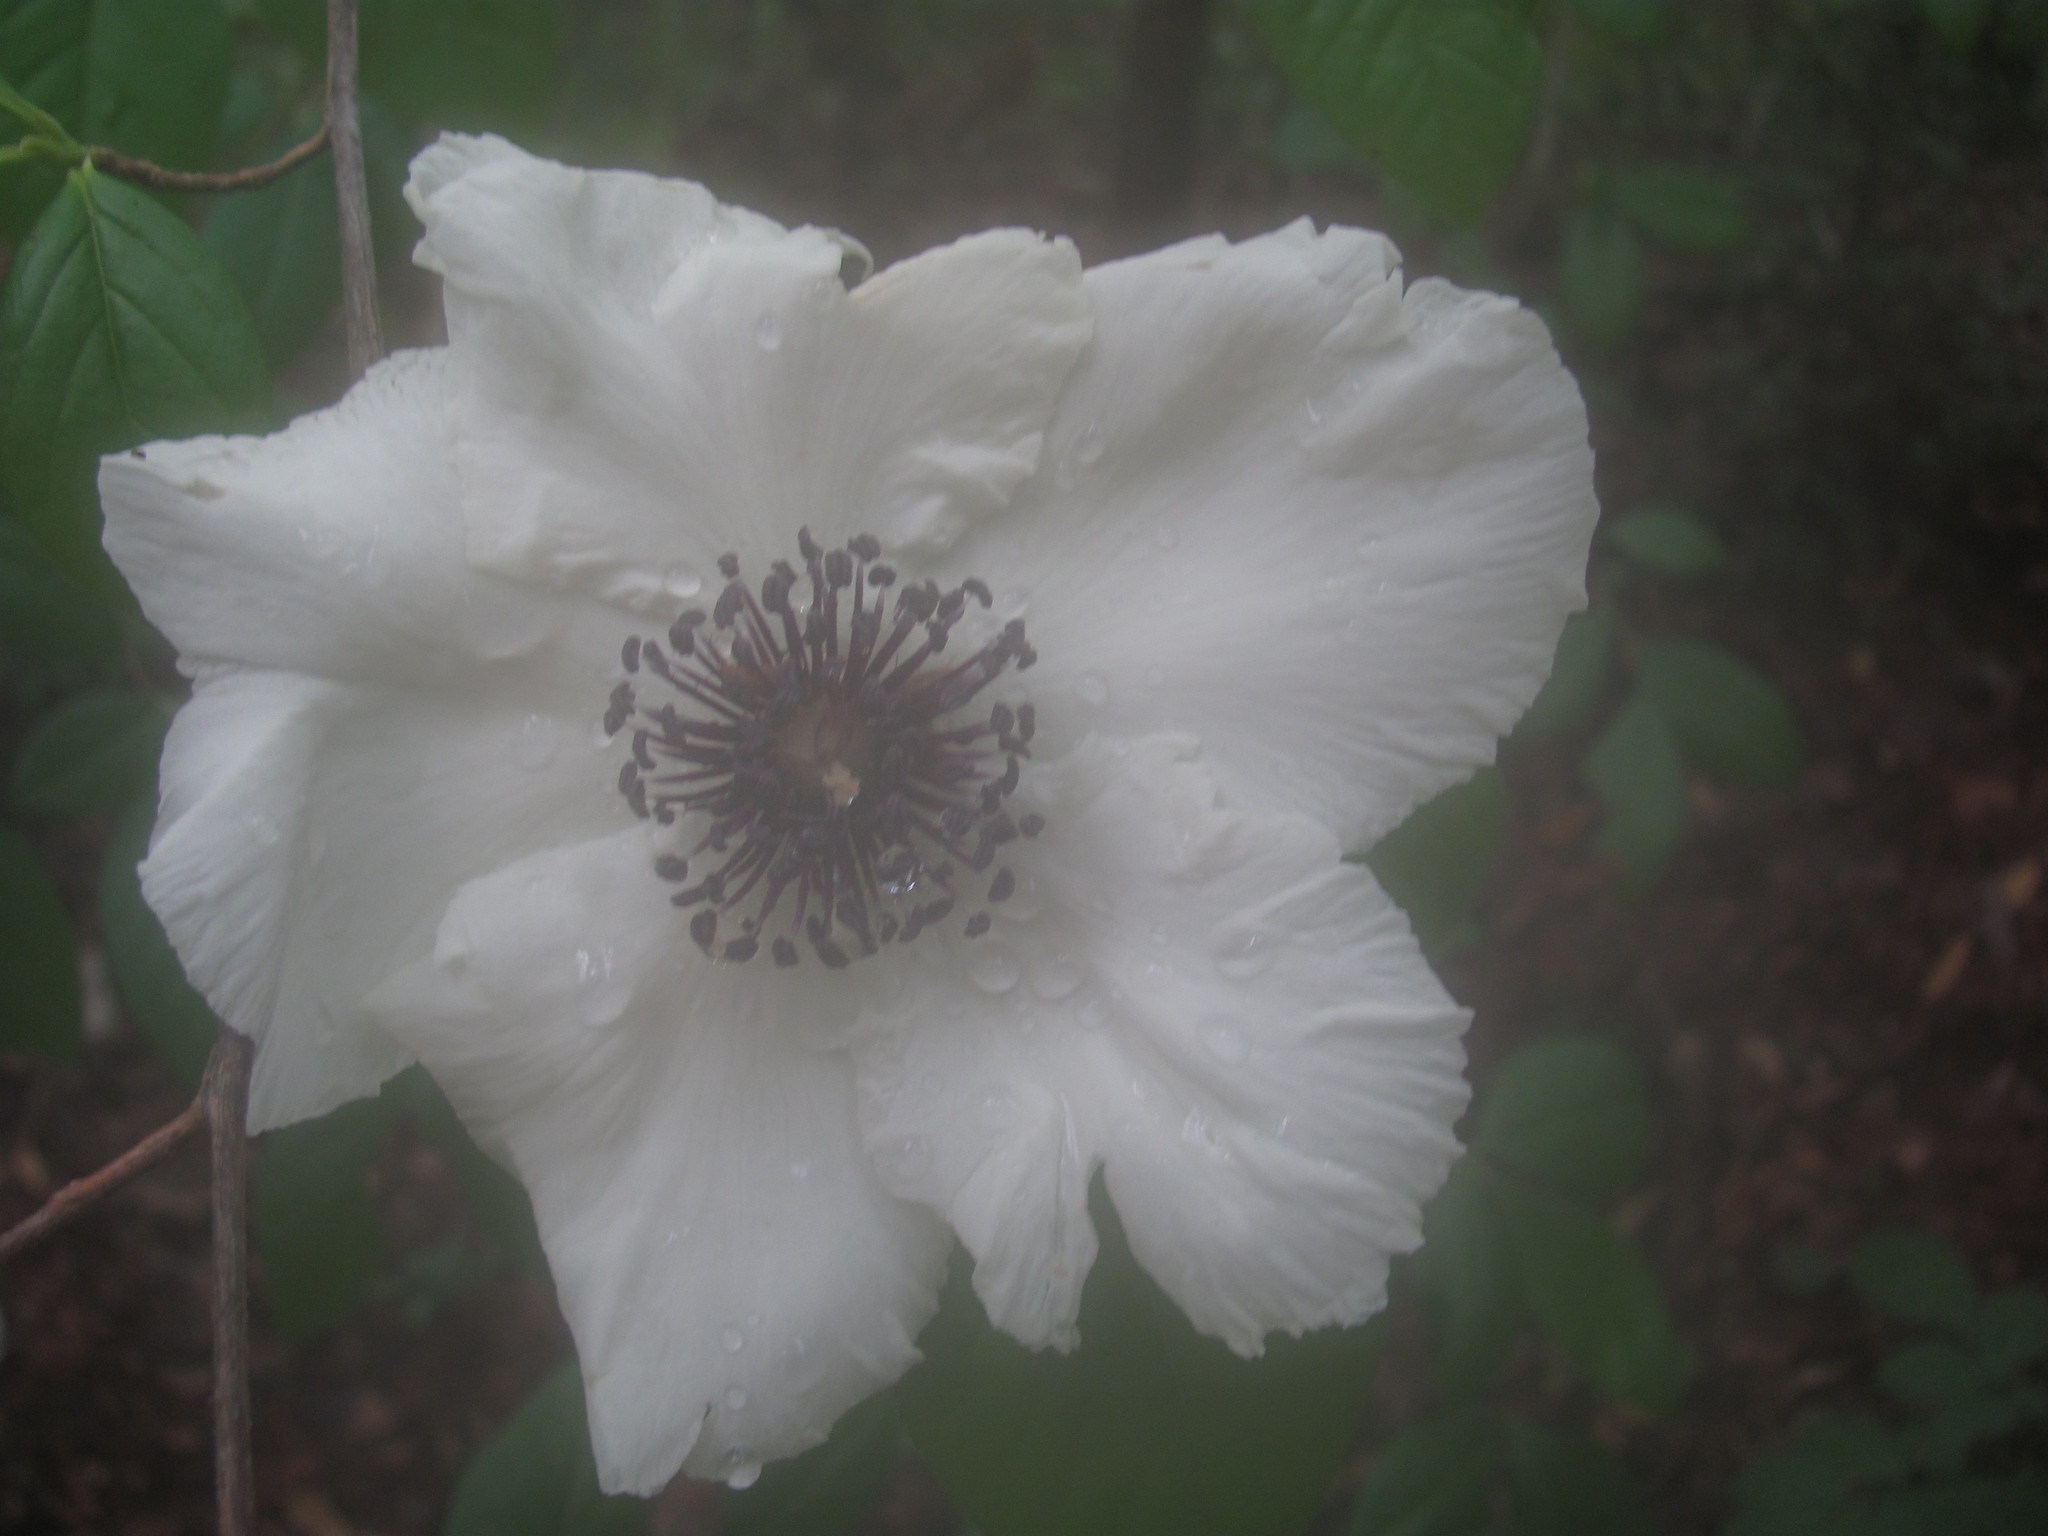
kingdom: Plantae
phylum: Tracheophyta
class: Magnoliopsida
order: Ericales
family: Theaceae
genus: Stewartia
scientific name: Stewartia malacodendron
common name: Virginia stewartia
